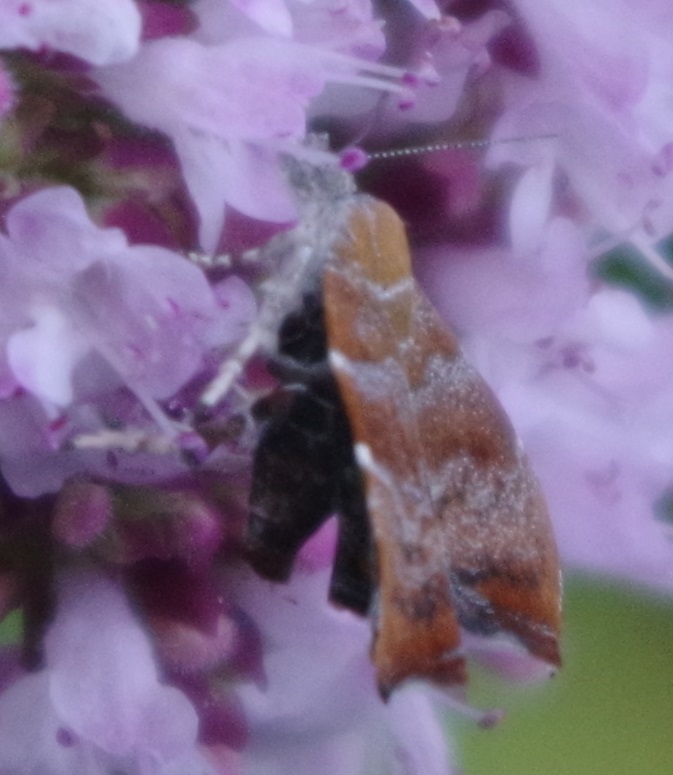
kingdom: Animalia
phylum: Arthropoda
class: Insecta
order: Lepidoptera
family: Choreutidae
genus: Anthophila
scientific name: Anthophila nemorana
